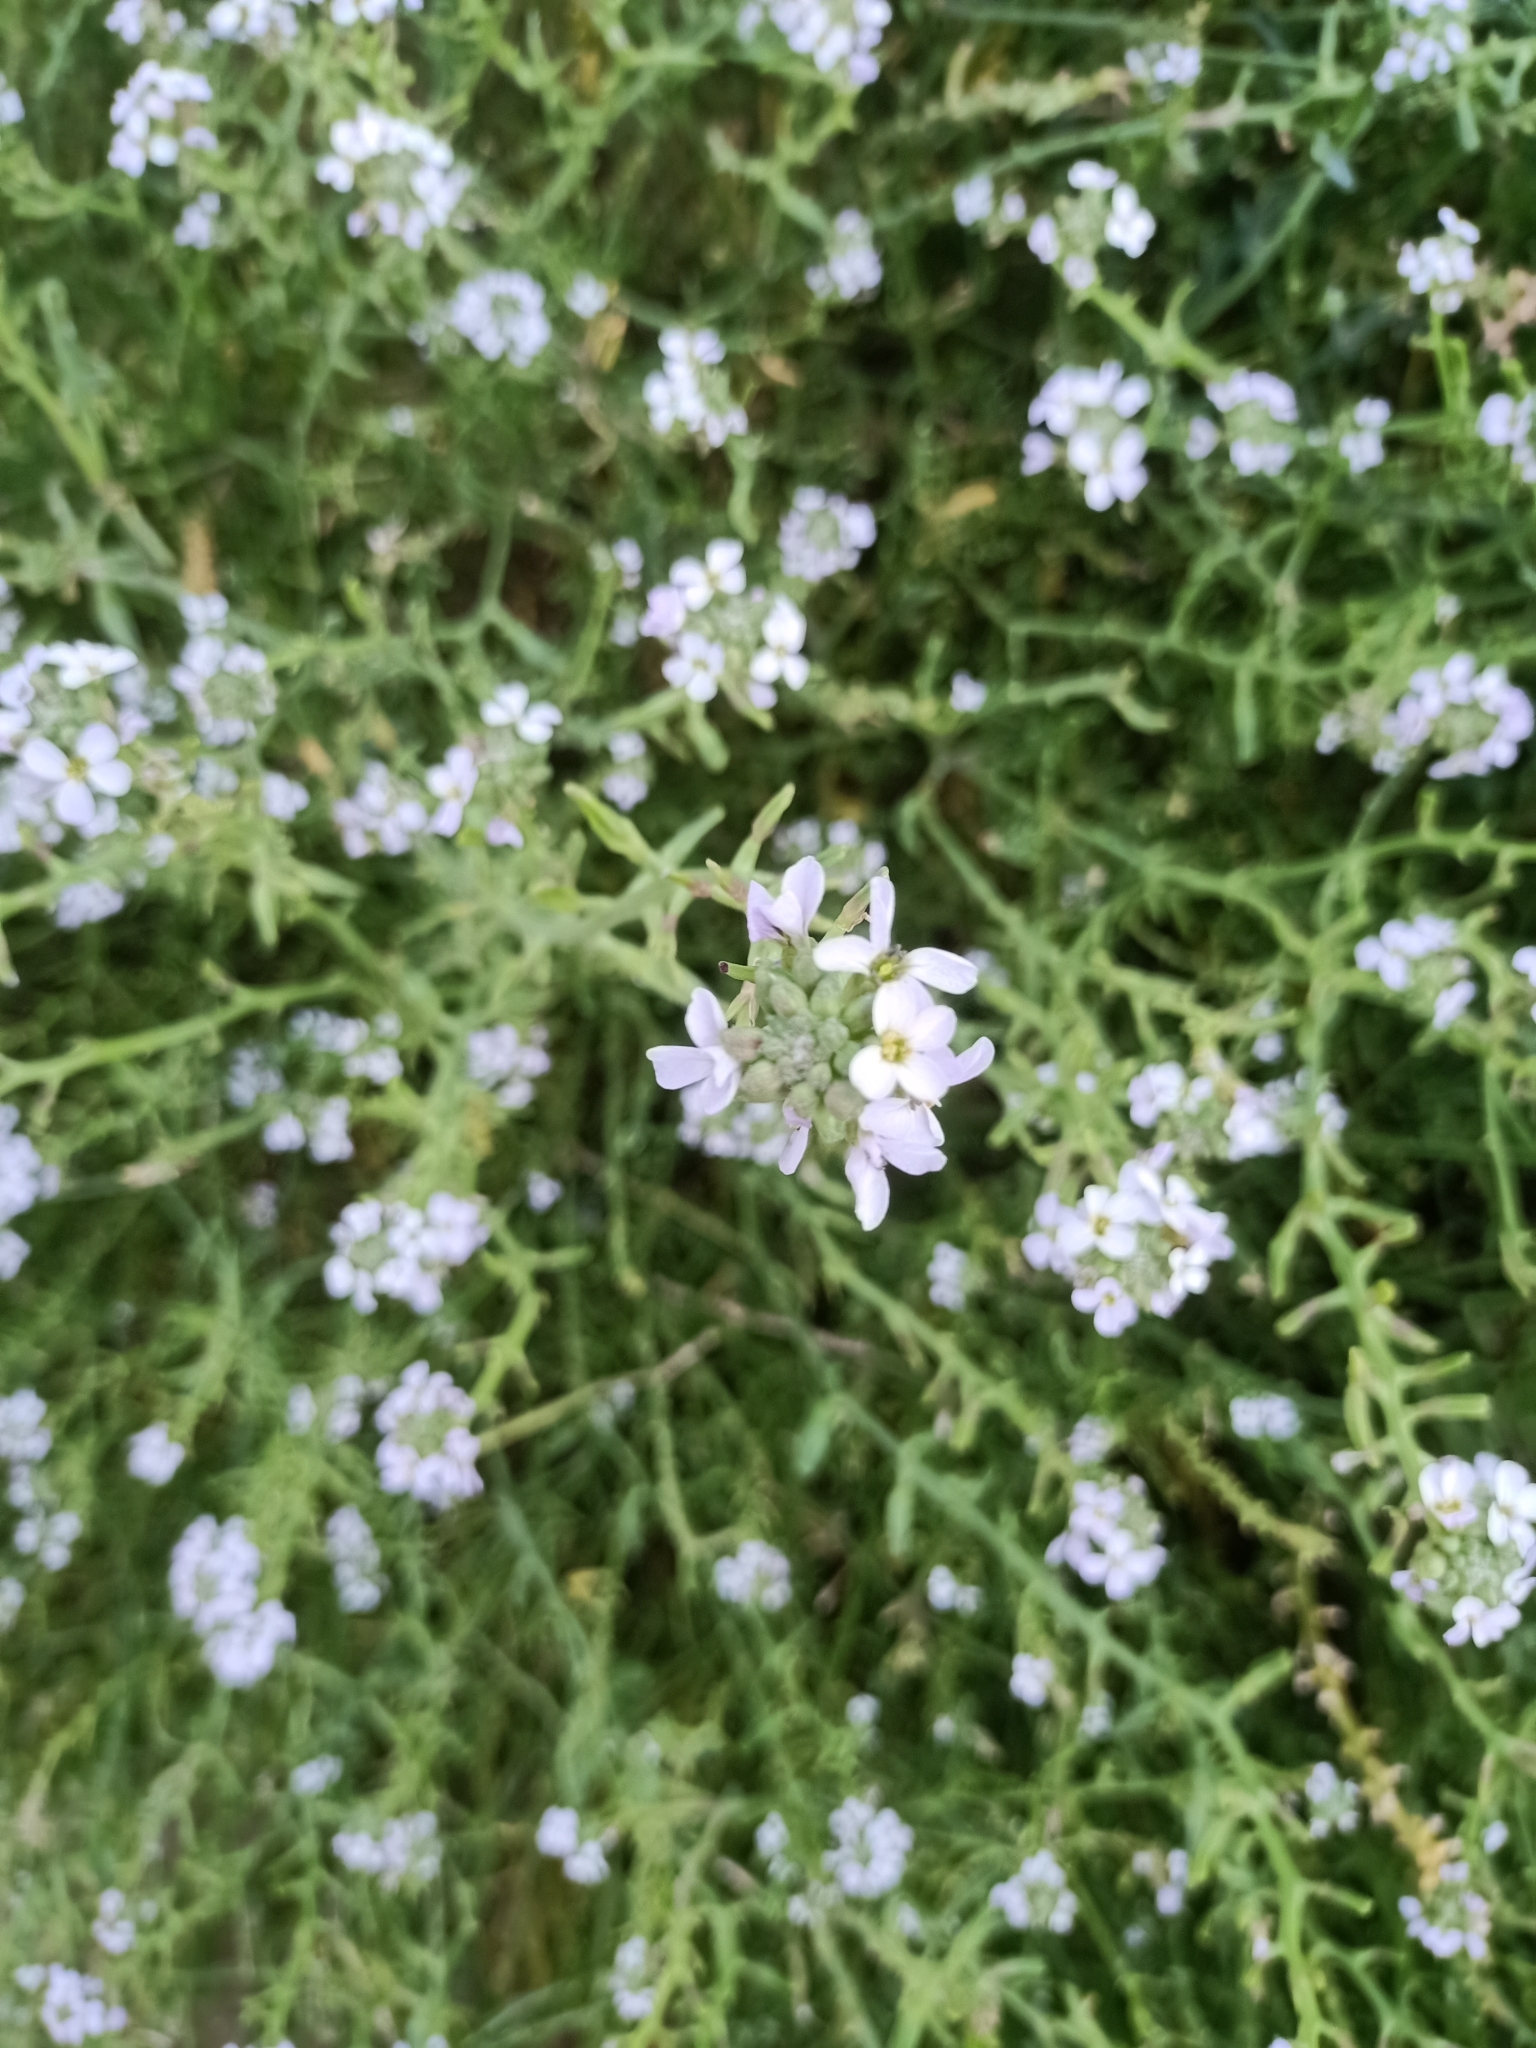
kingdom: Plantae
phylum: Tracheophyta
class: Magnoliopsida
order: Brassicales
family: Brassicaceae
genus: Cakile
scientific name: Cakile maritima
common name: Sea rocket
